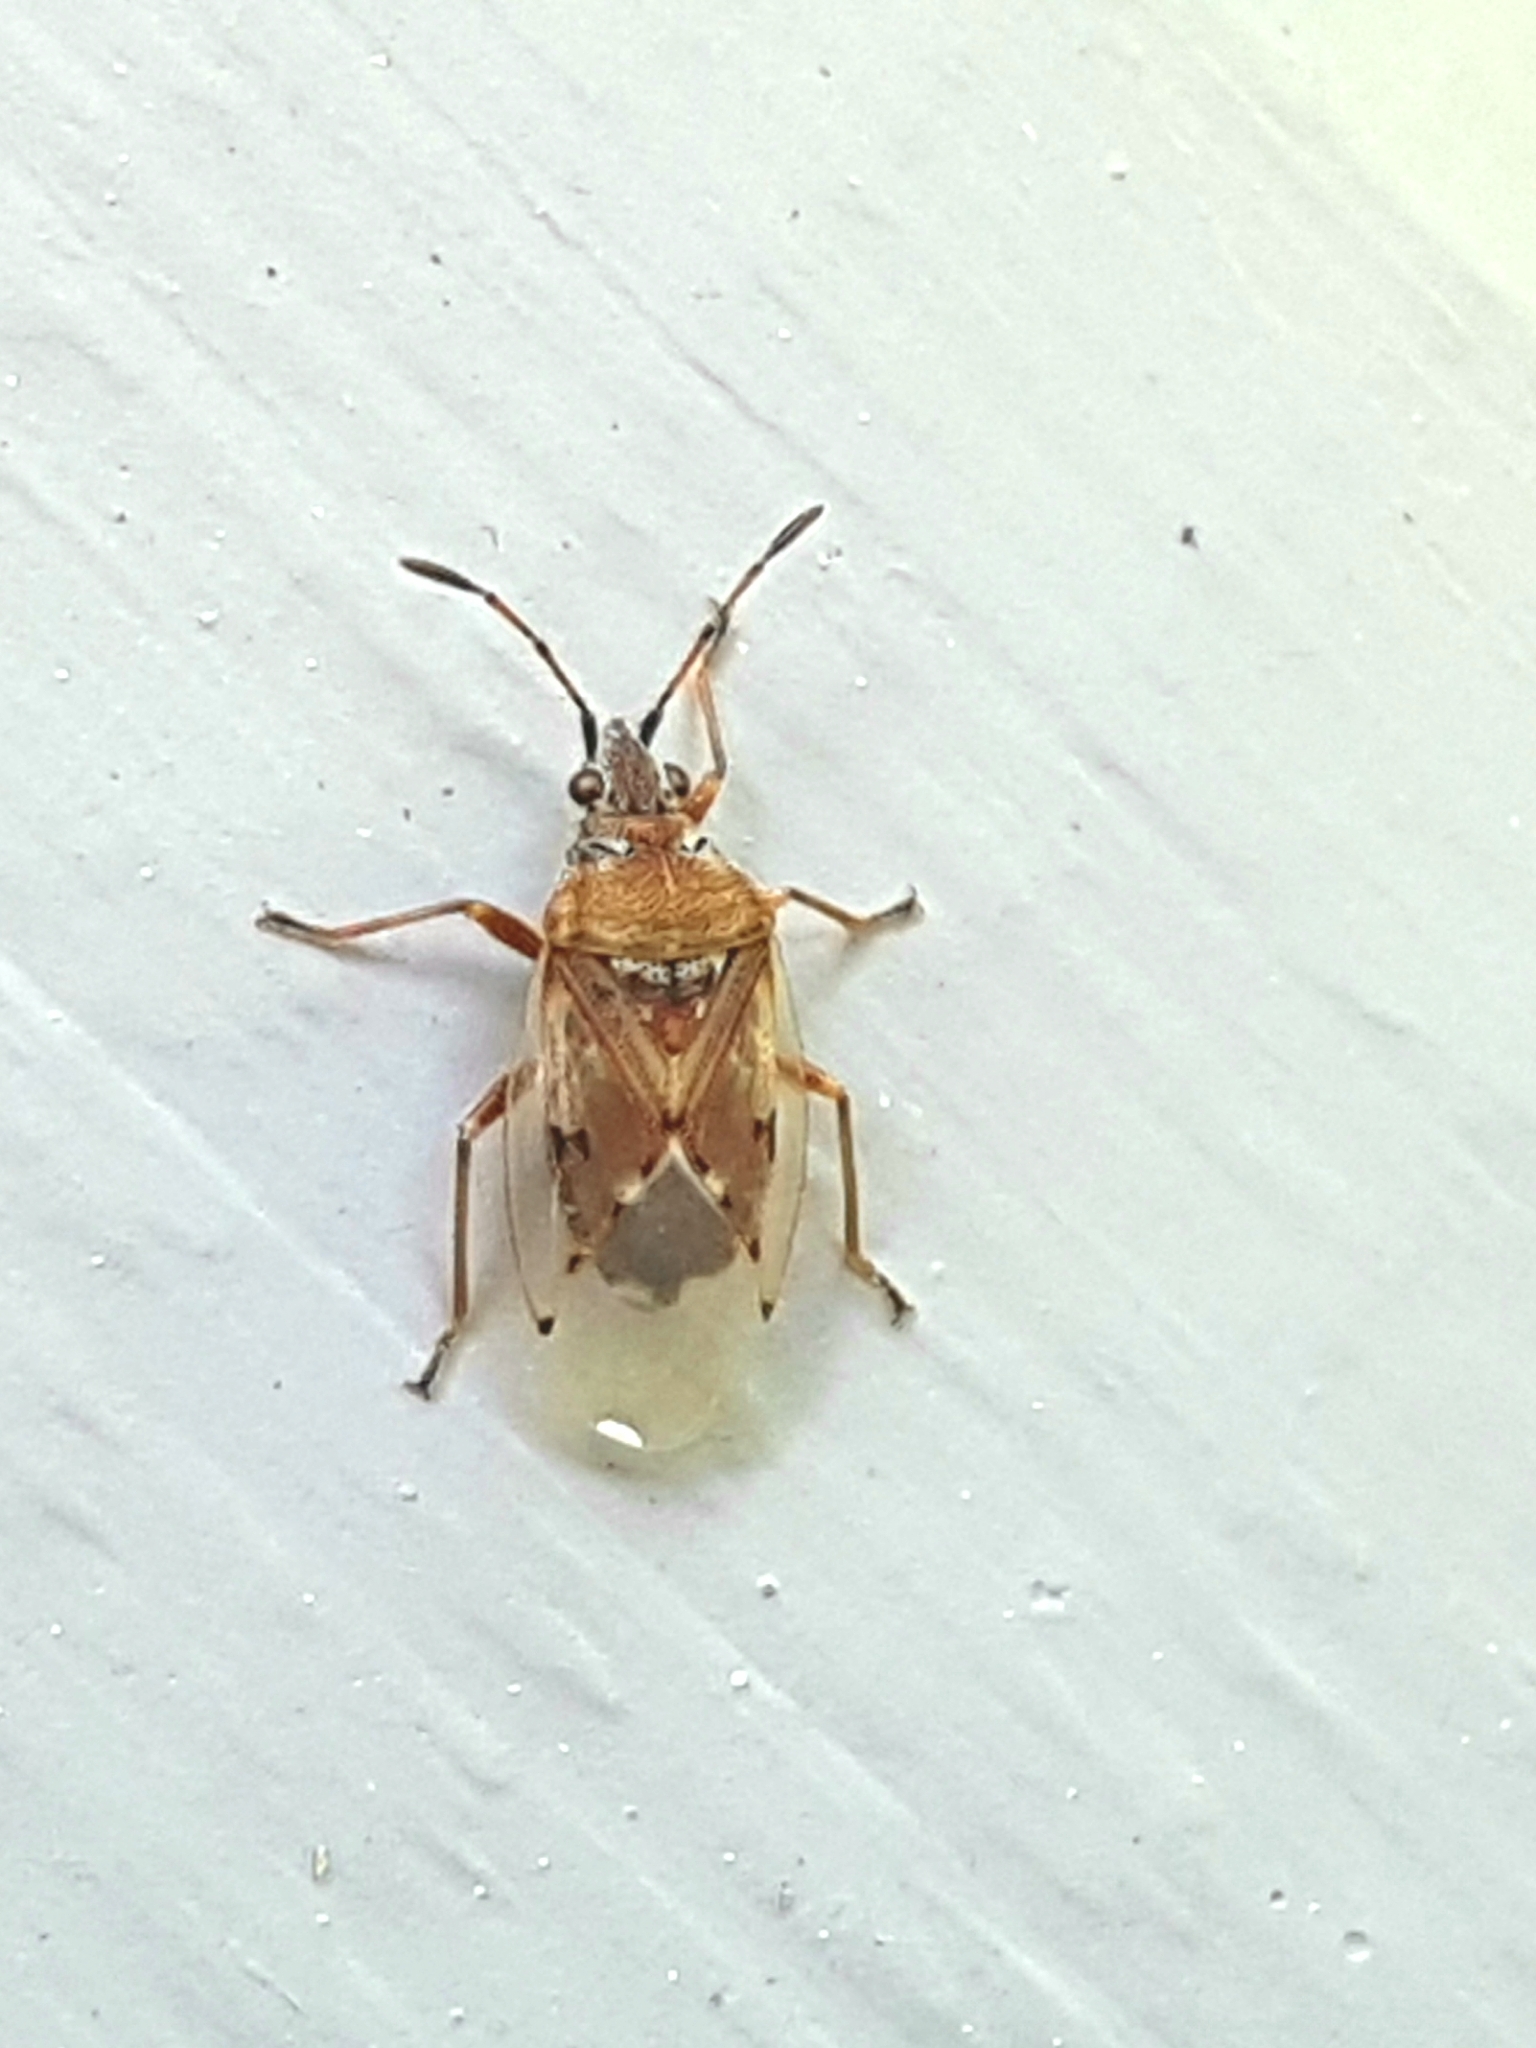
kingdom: Animalia
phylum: Arthropoda
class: Insecta
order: Hemiptera
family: Lygaeidae
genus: Kleidocerys
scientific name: Kleidocerys resedae
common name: Birch catkin bug
